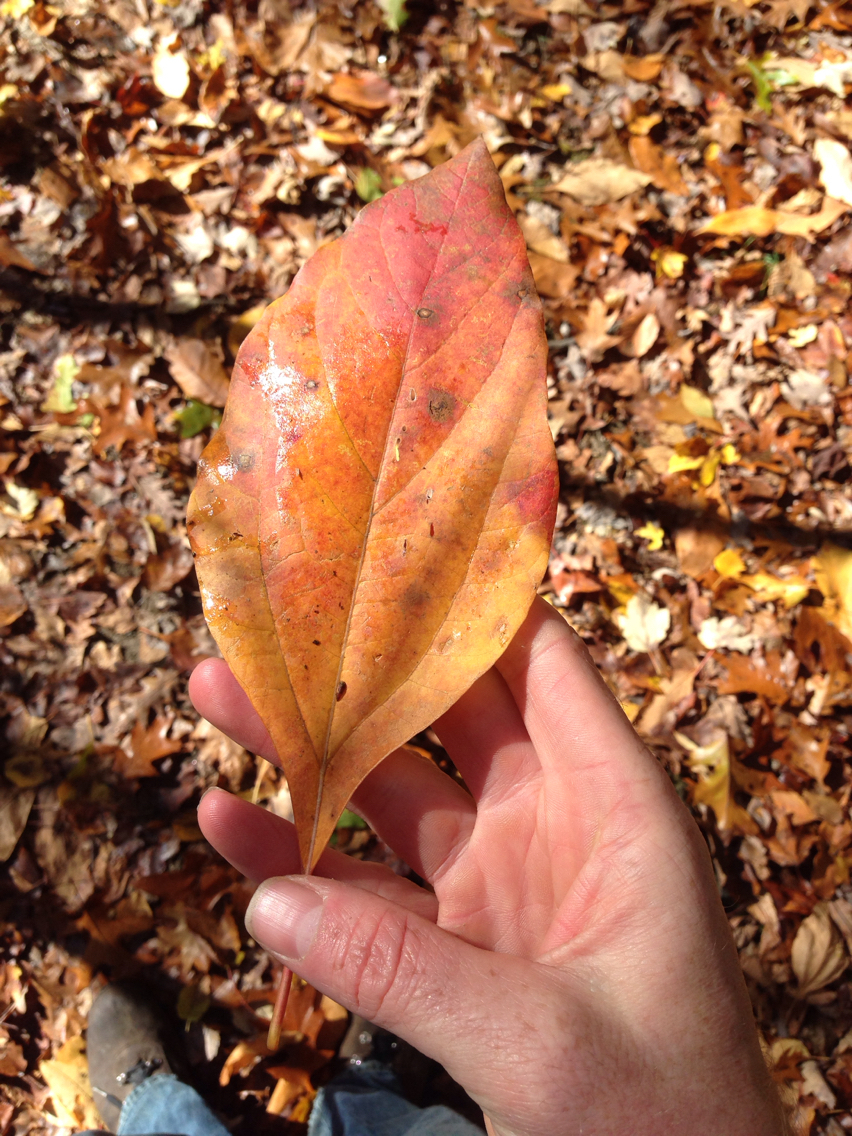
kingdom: Plantae
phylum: Tracheophyta
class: Magnoliopsida
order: Laurales
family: Lauraceae
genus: Sassafras
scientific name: Sassafras albidum
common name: Sassafras
